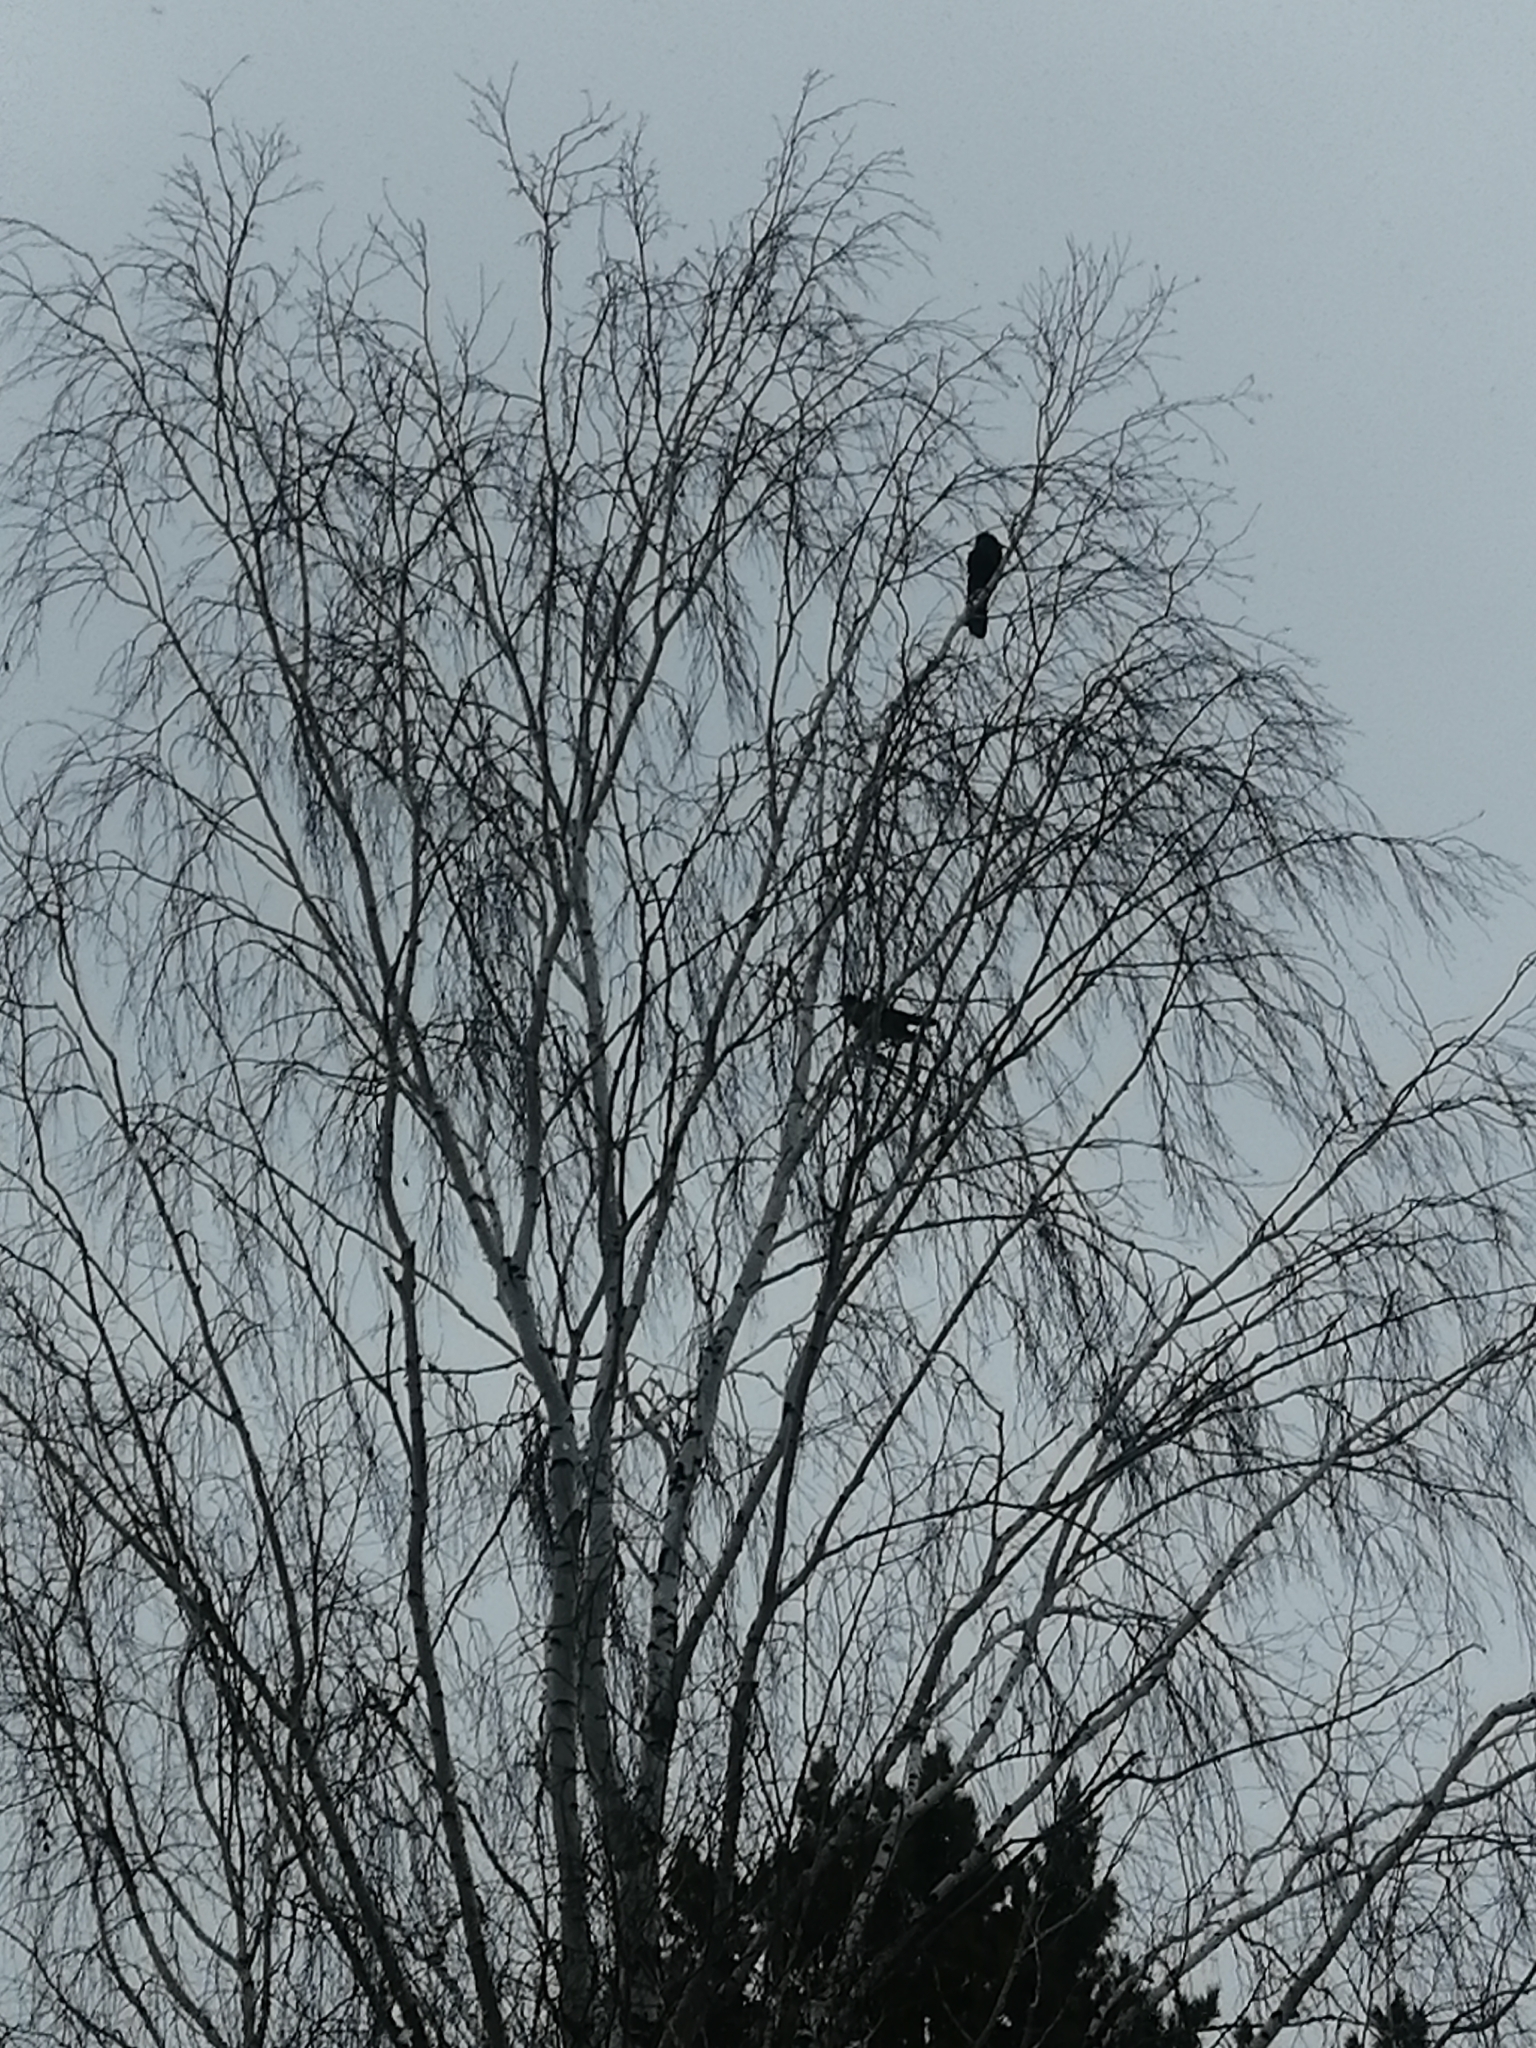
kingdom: Animalia
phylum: Chordata
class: Aves
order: Passeriformes
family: Corvidae
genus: Corvus
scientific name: Corvus corone
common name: Carrion crow
